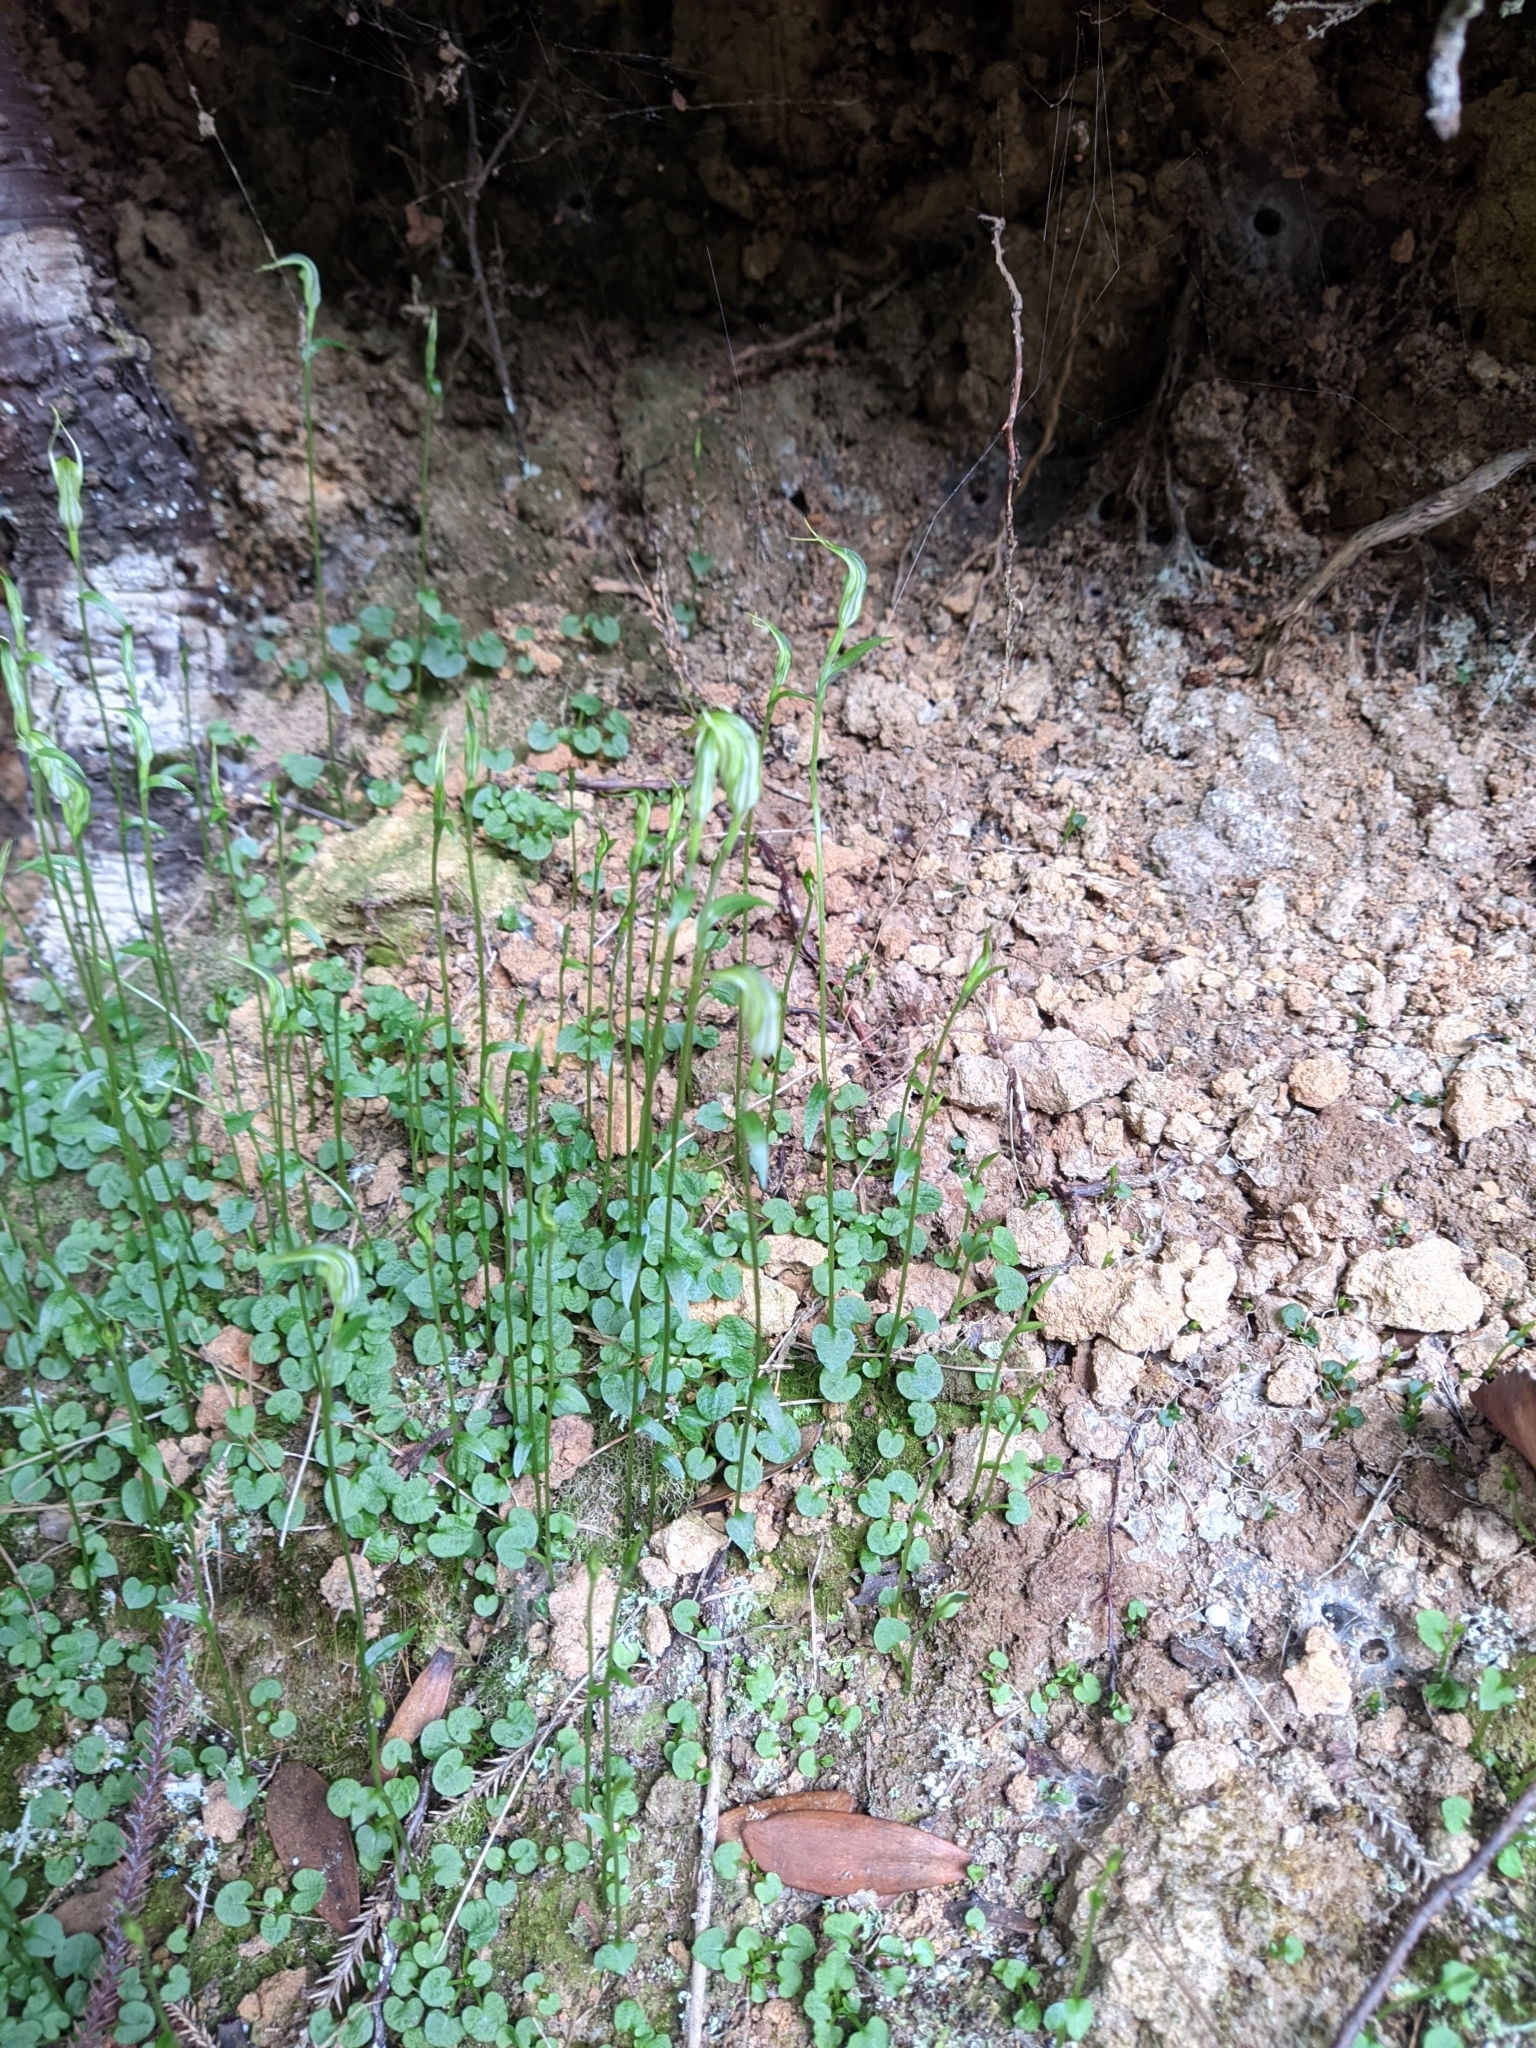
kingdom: Plantae
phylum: Tracheophyta
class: Liliopsida
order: Asparagales
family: Orchidaceae
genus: Pterostylis
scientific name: Pterostylis trullifolia
